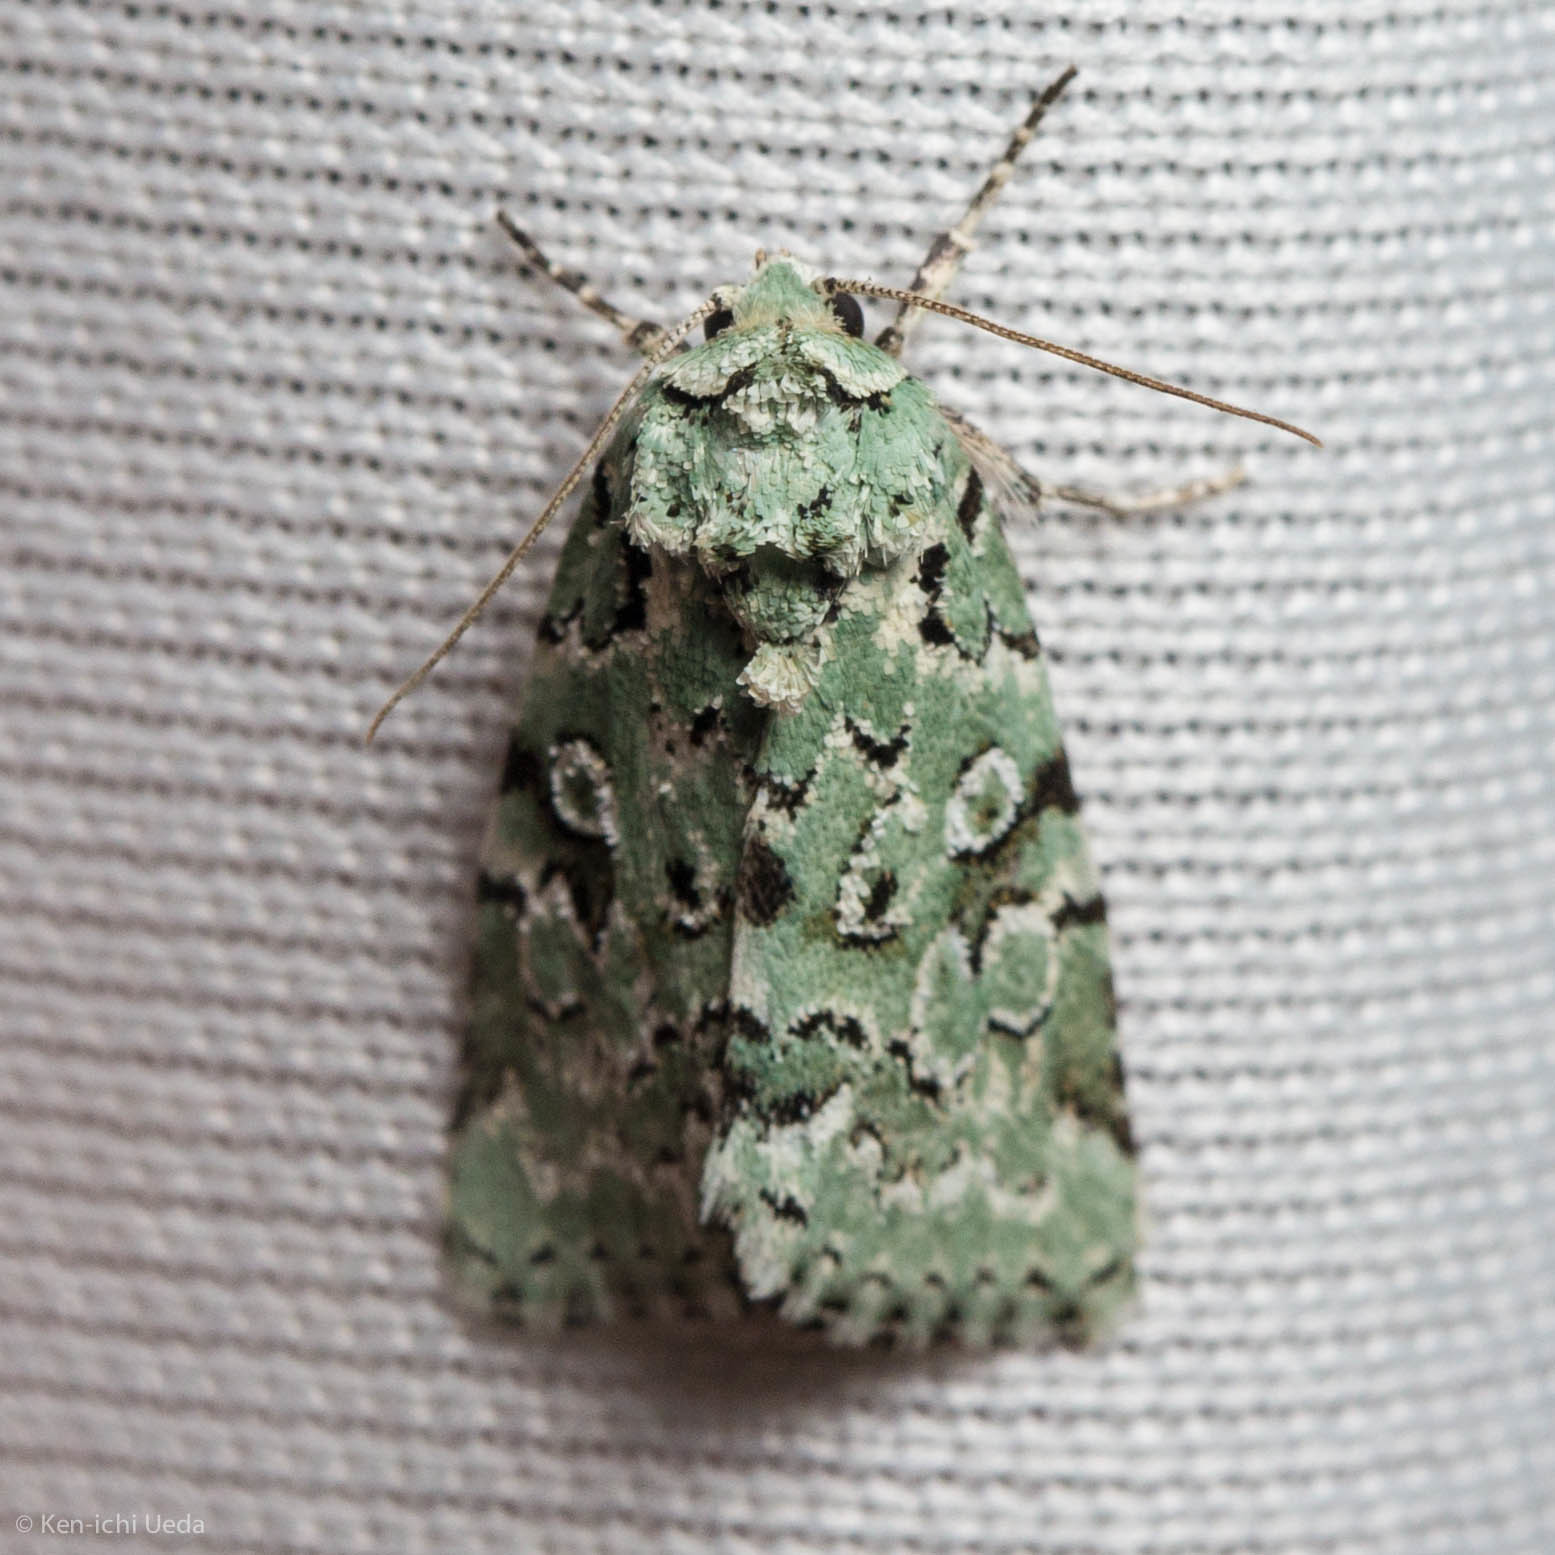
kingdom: Animalia
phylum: Arthropoda
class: Insecta
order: Lepidoptera
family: Noctuidae
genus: Bryolymnia
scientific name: Bryolymnia viridata
